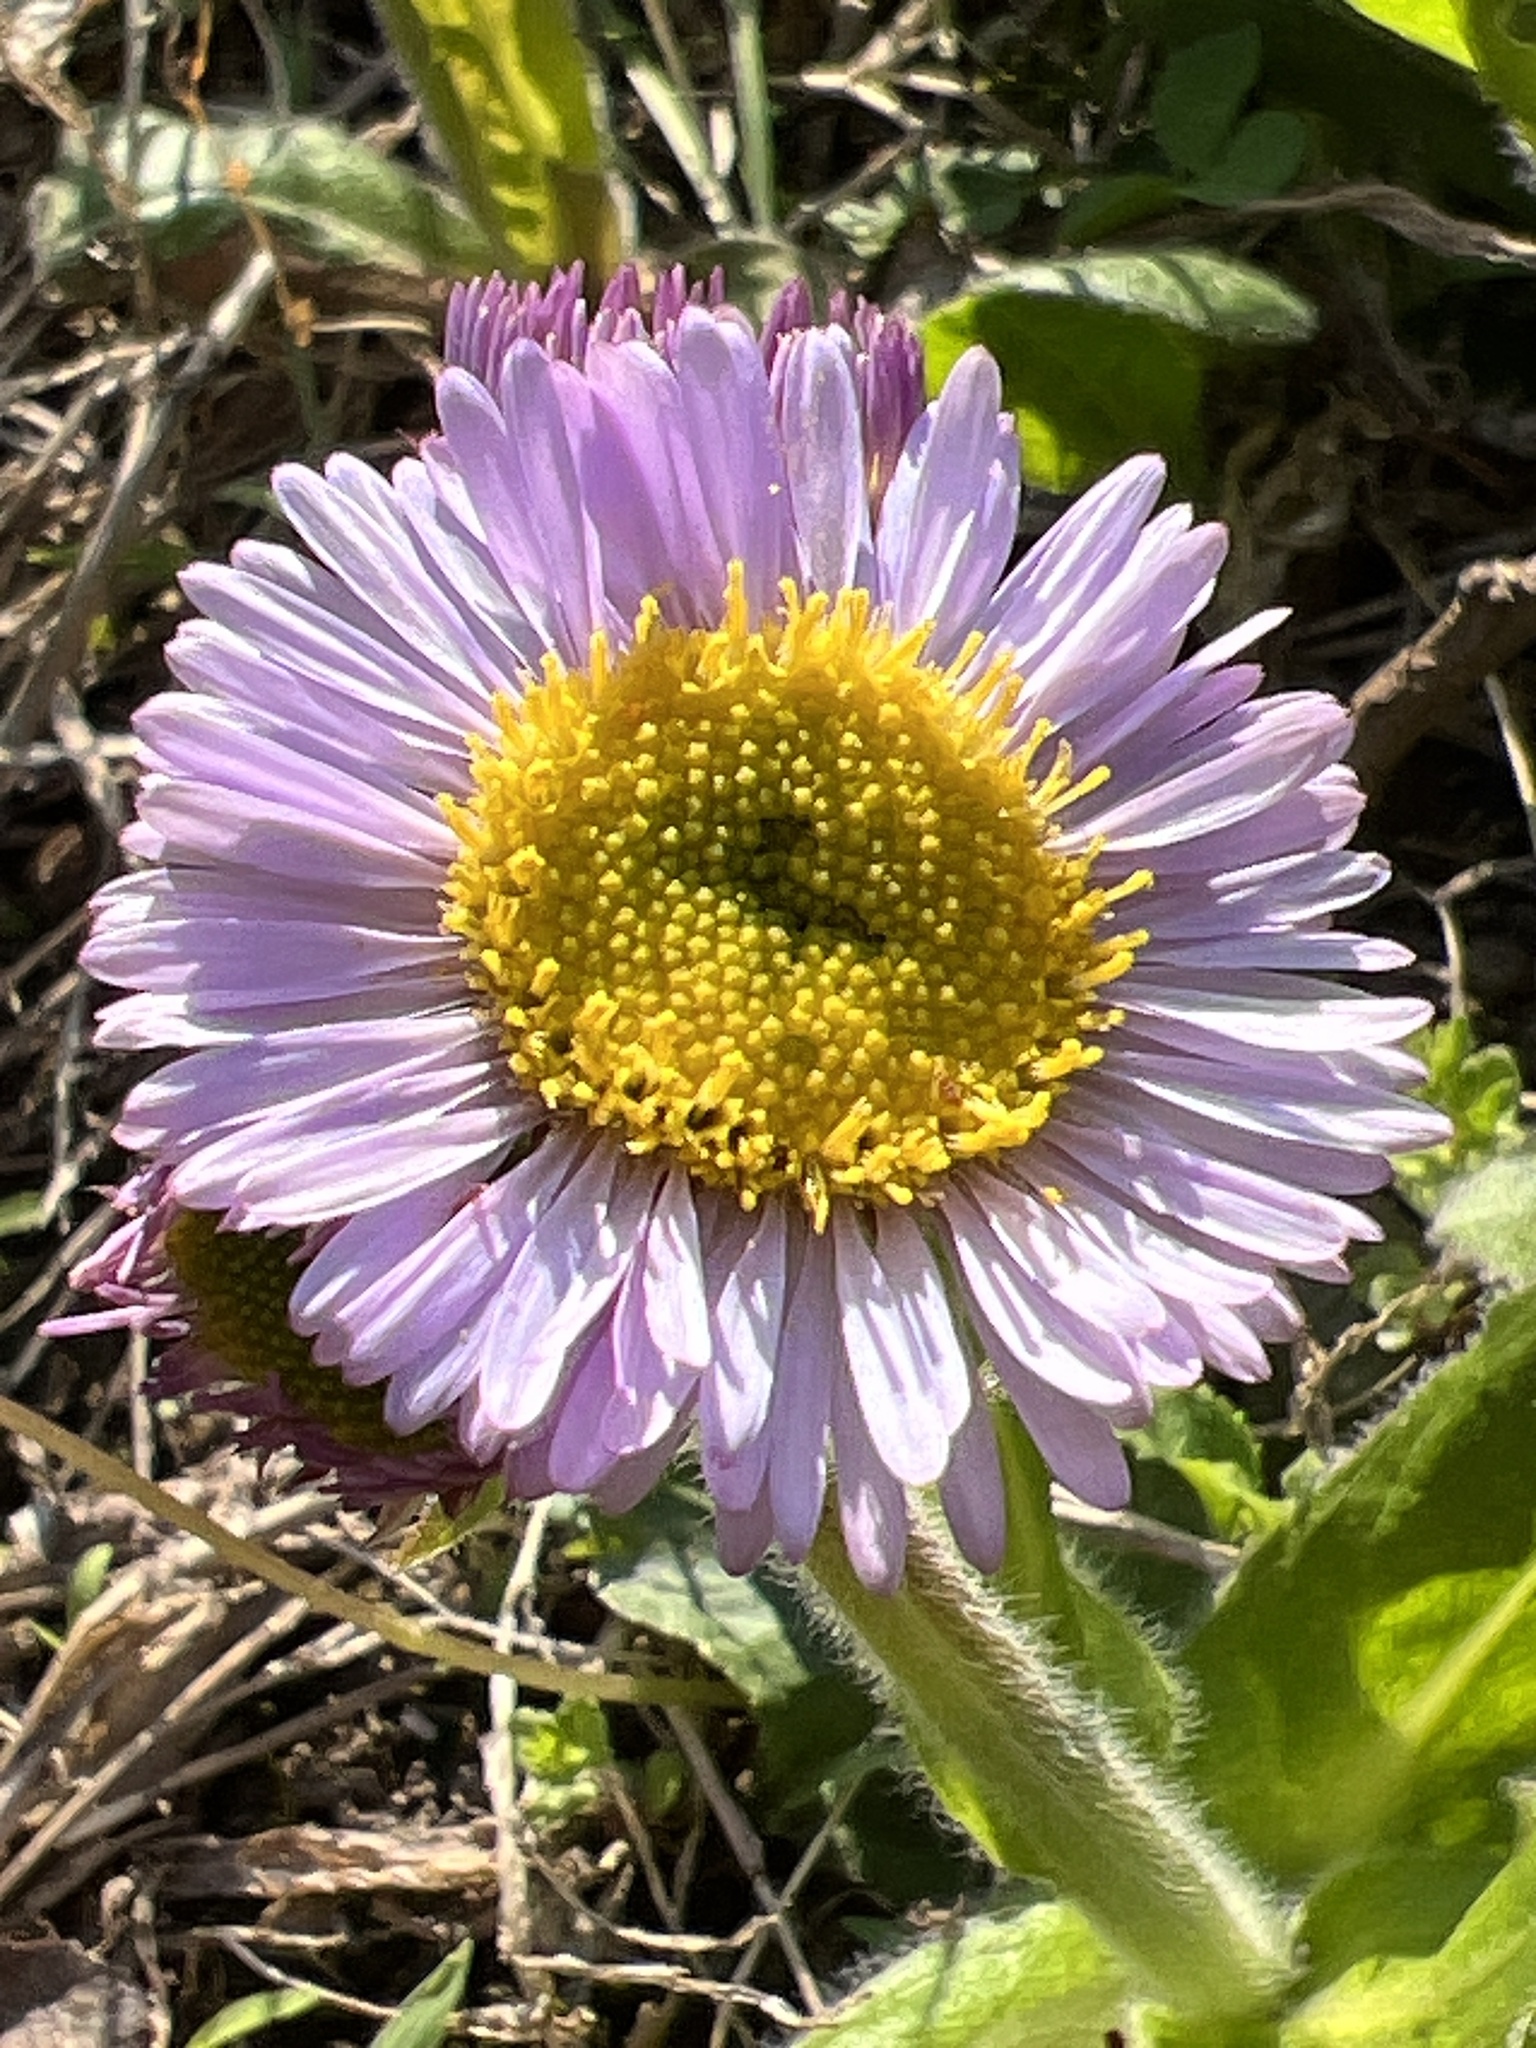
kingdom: Plantae
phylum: Tracheophyta
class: Magnoliopsida
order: Asterales
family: Asteraceae
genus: Erigeron
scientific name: Erigeron pulchellus
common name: Hairy fleabane
